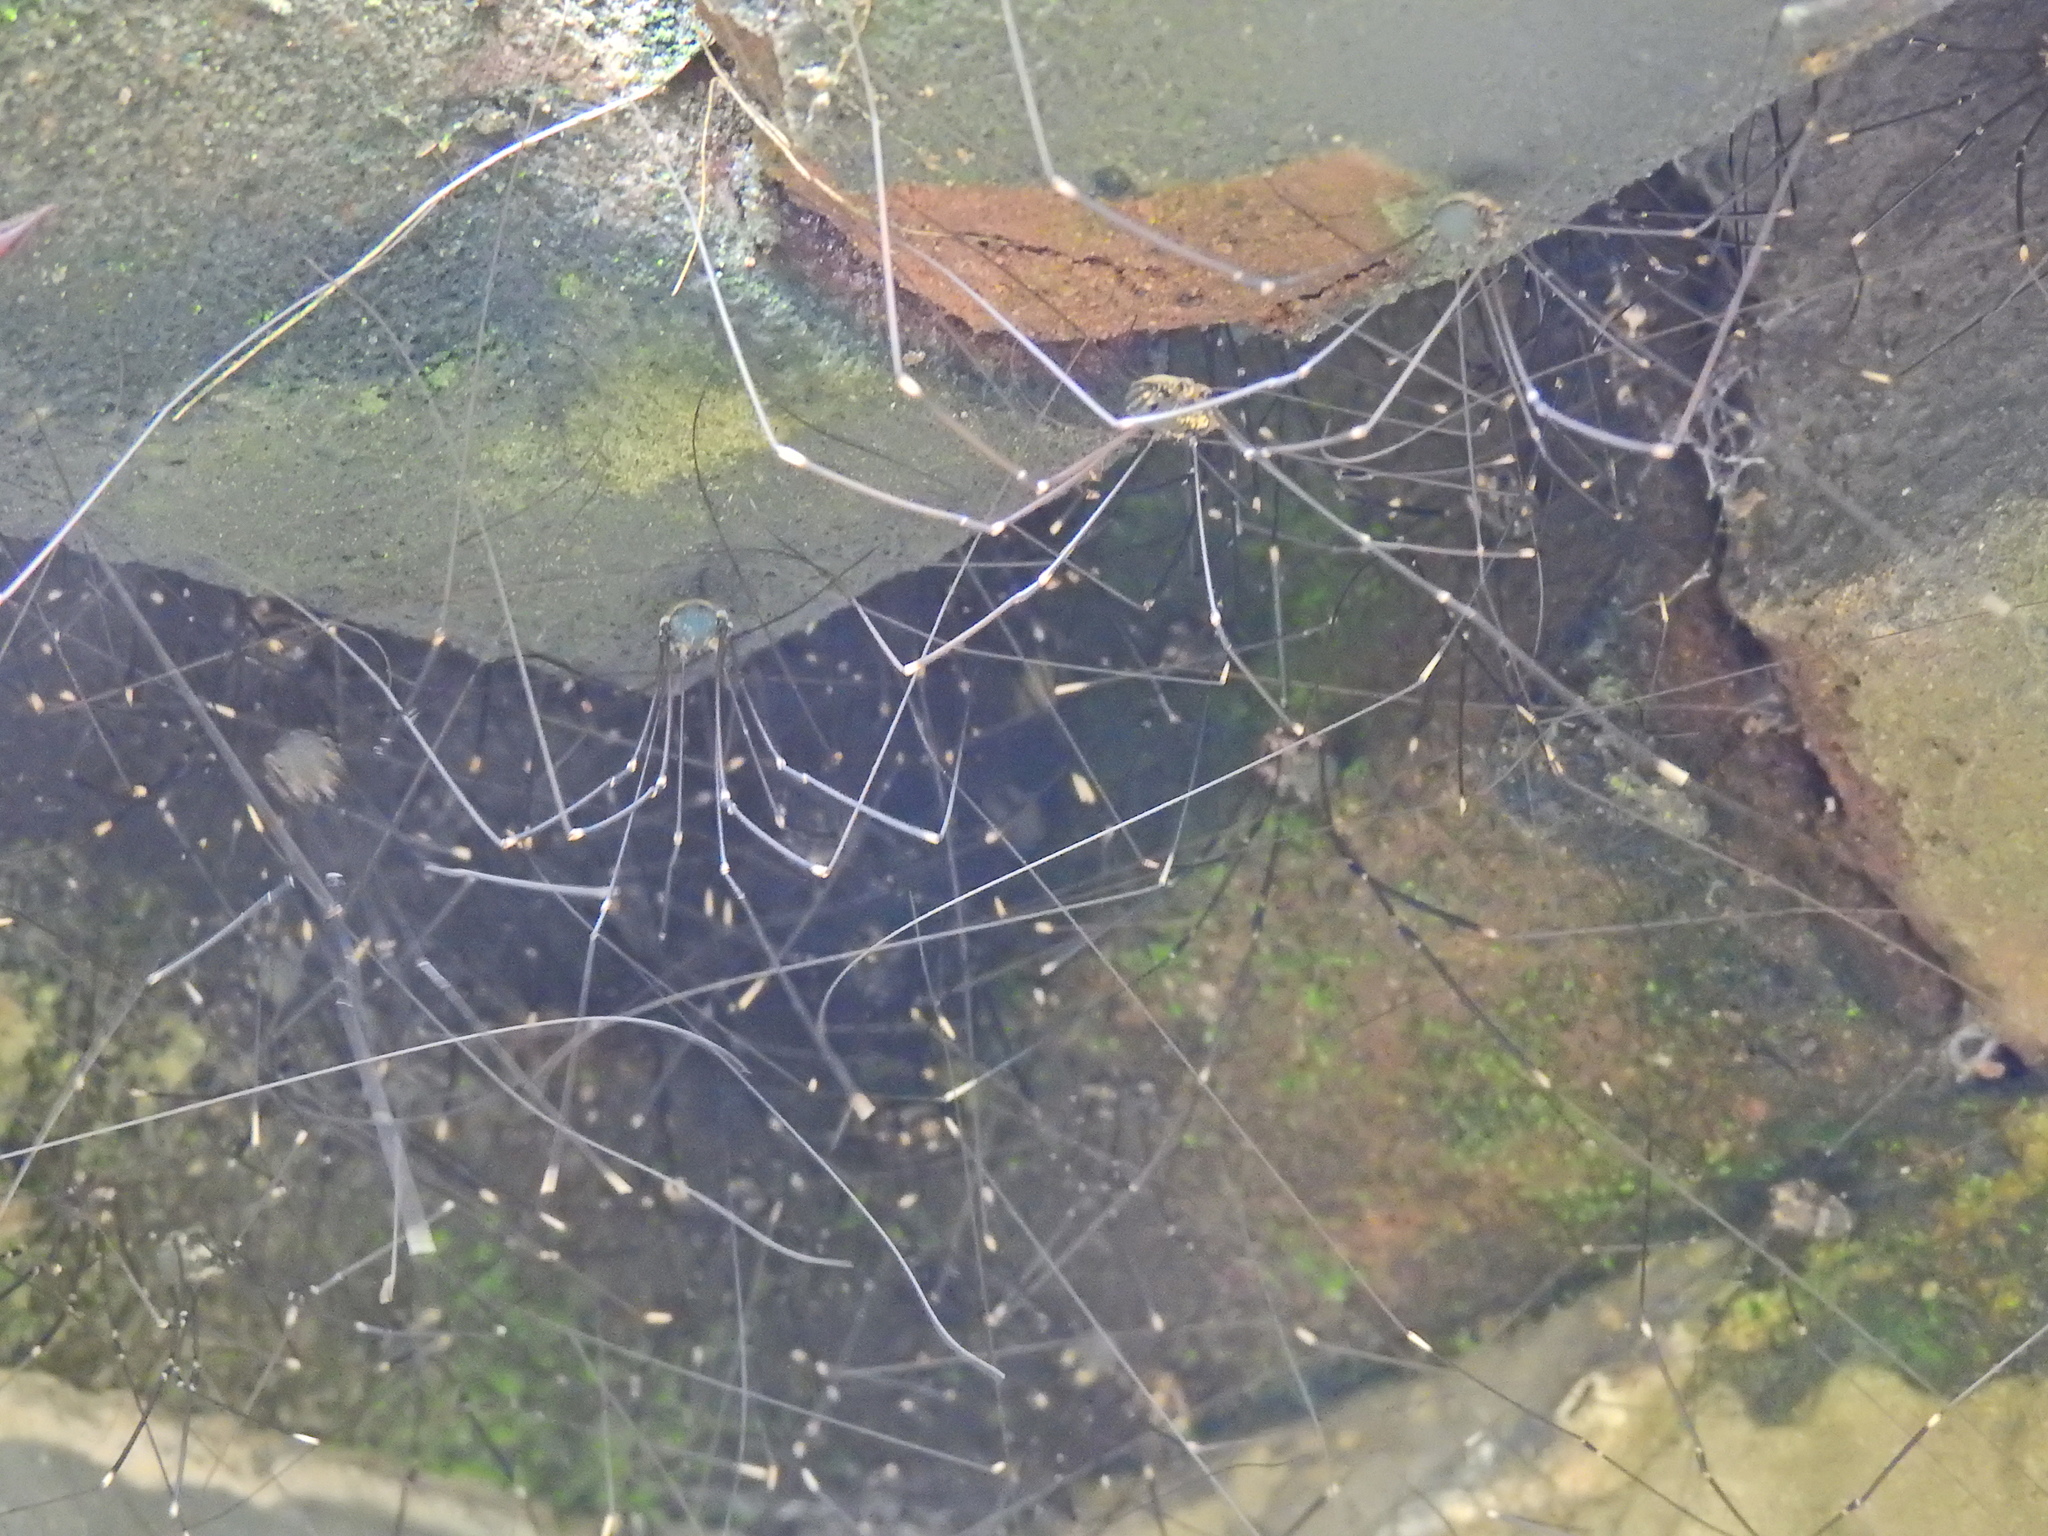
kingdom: Animalia
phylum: Arthropoda
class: Arachnida
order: Opiliones
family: Sclerosomatidae
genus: Leiobunum
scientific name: Leiobunum
